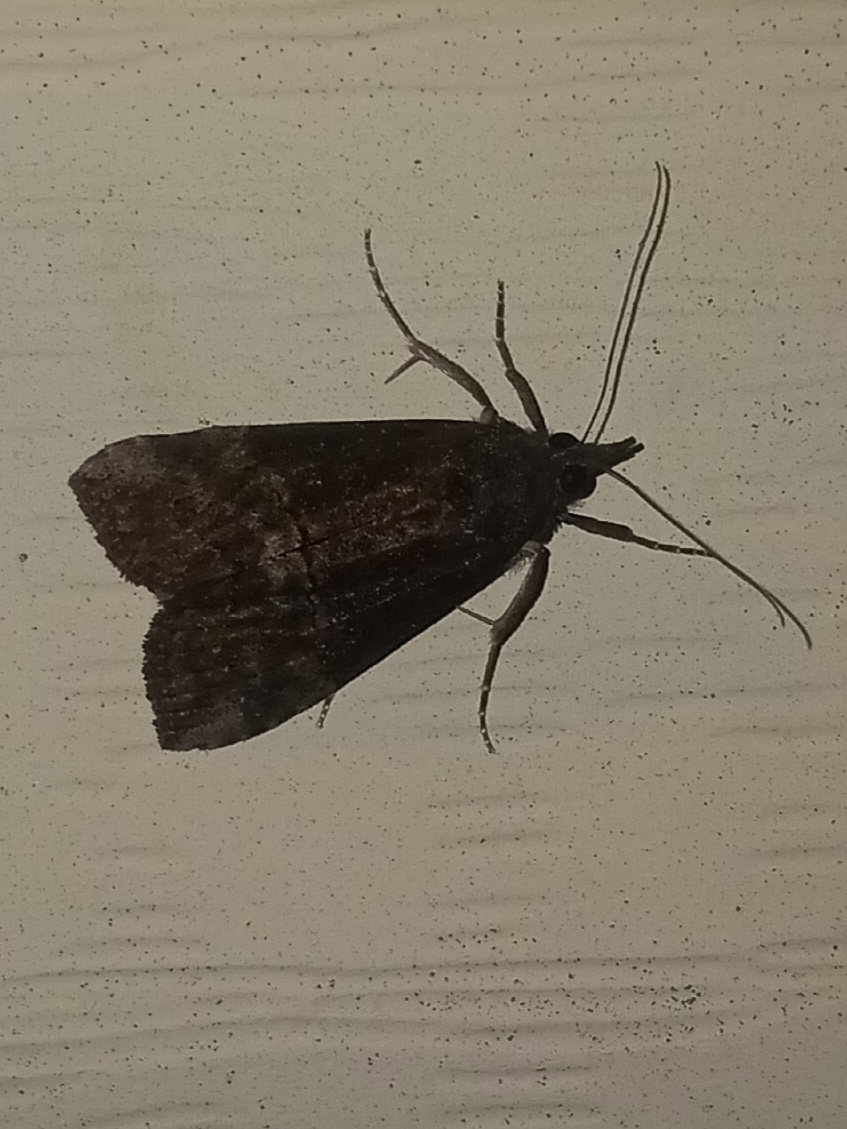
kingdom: Animalia
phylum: Arthropoda
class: Insecta
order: Lepidoptera
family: Erebidae
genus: Hypena
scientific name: Hypena scabra
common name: Green cloverworm
